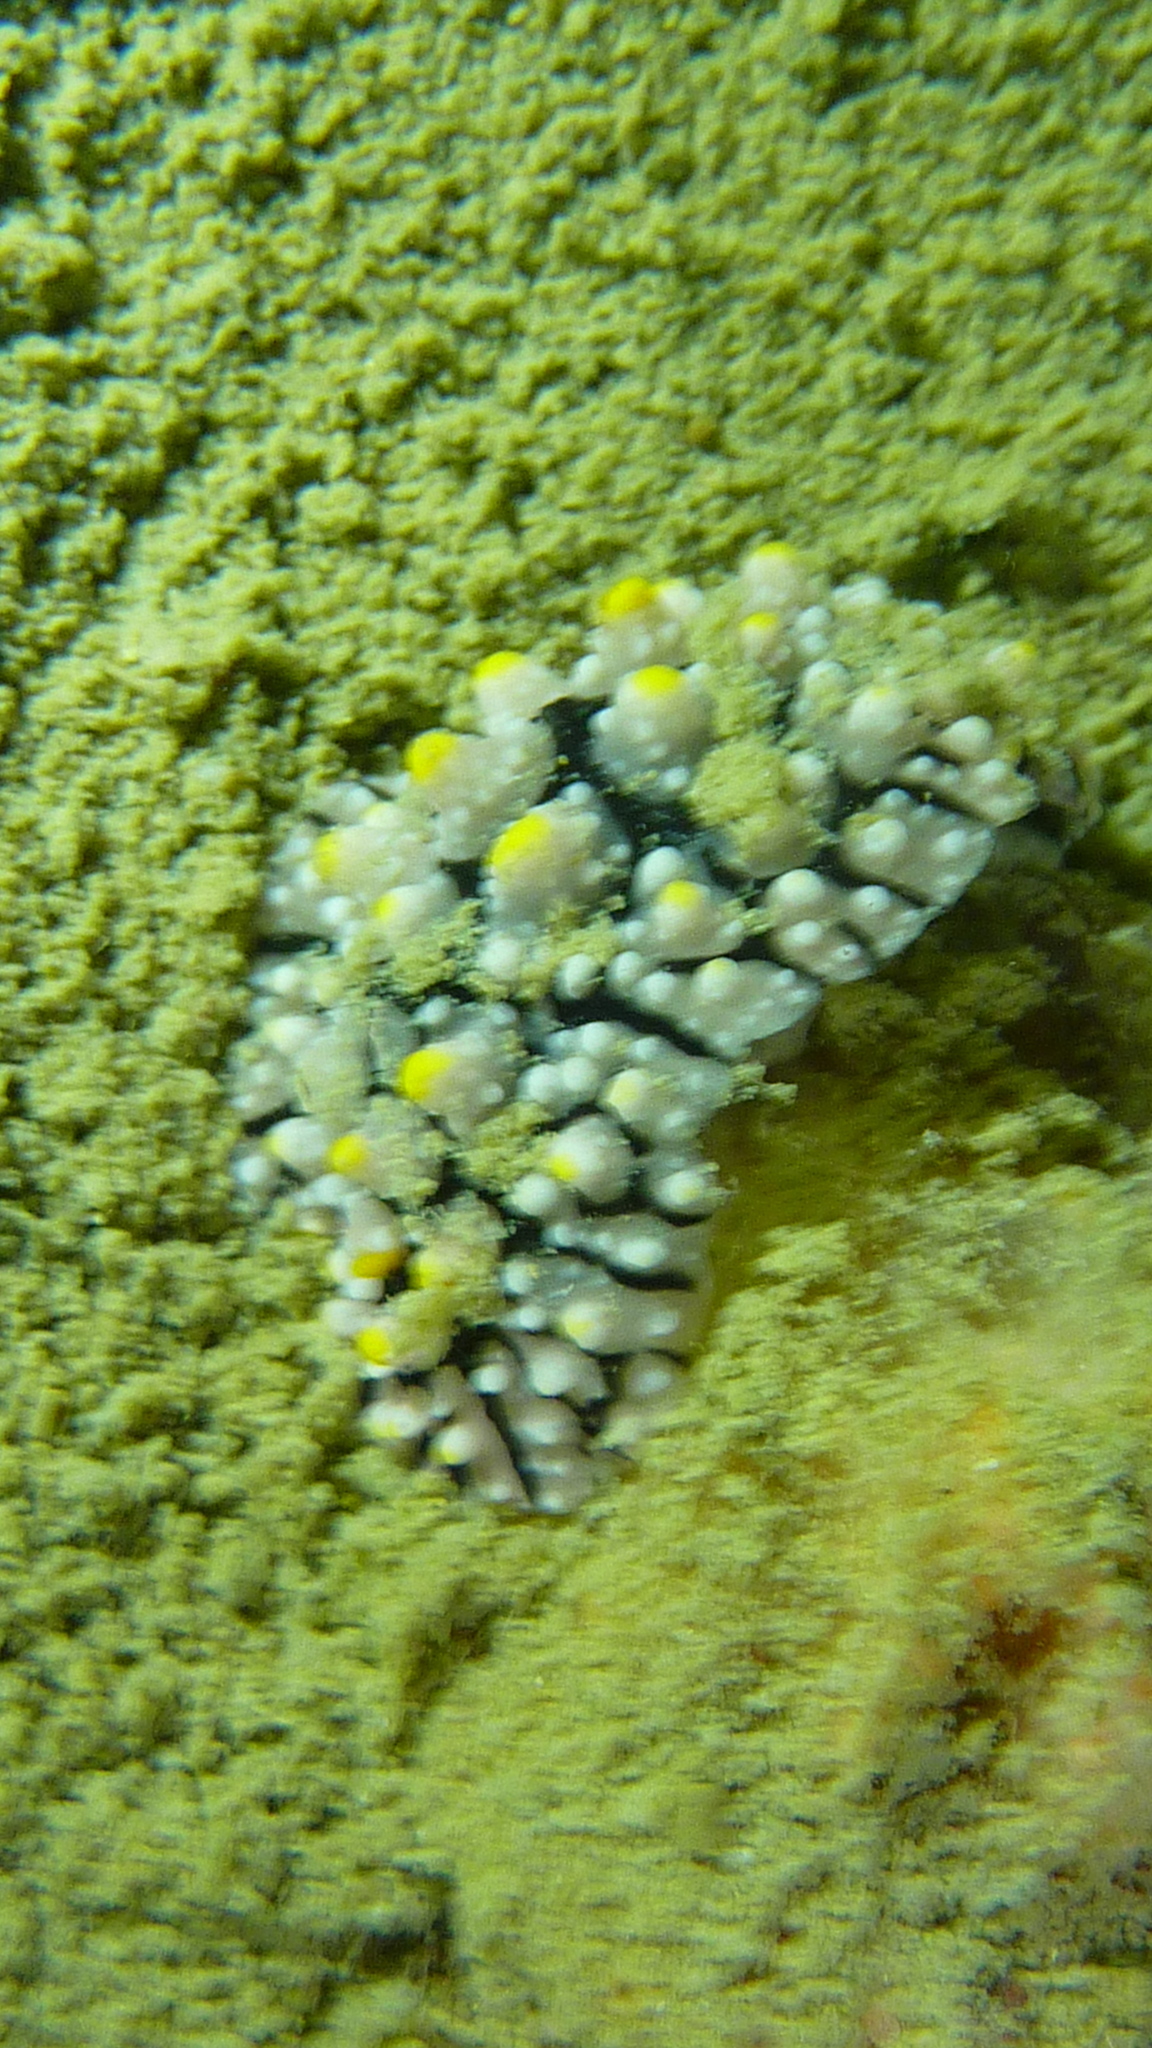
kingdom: Animalia
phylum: Mollusca
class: Gastropoda
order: Nudibranchia
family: Phyllidiidae
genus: Phyllidia
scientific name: Phyllidia elegans
